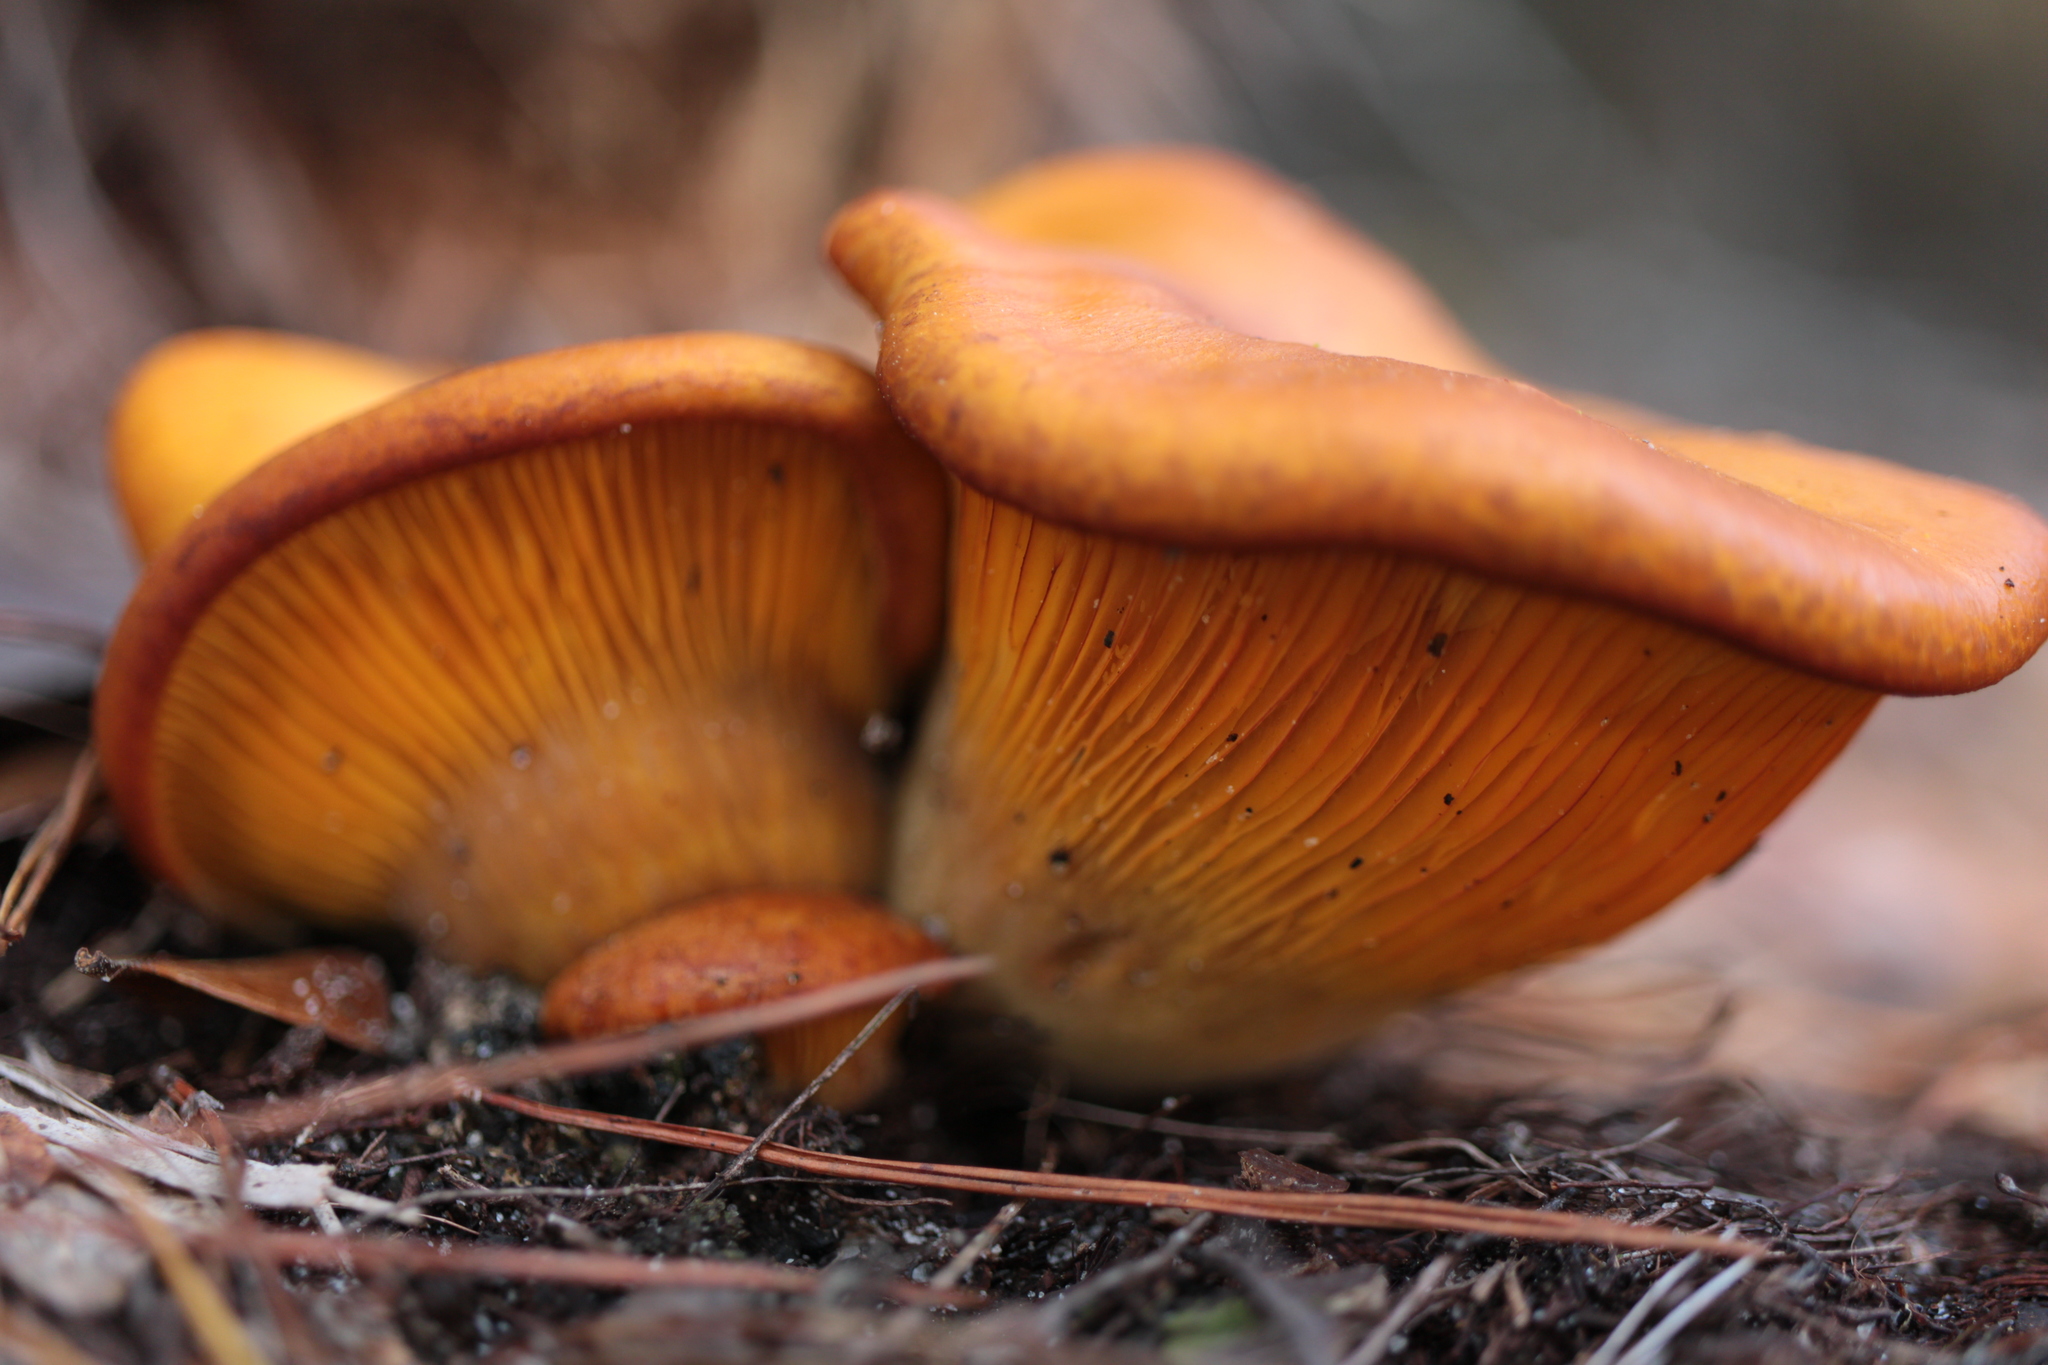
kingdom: Fungi
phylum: Basidiomycota
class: Agaricomycetes
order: Agaricales
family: Omphalotaceae
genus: Omphalotus
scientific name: Omphalotus subilludens
